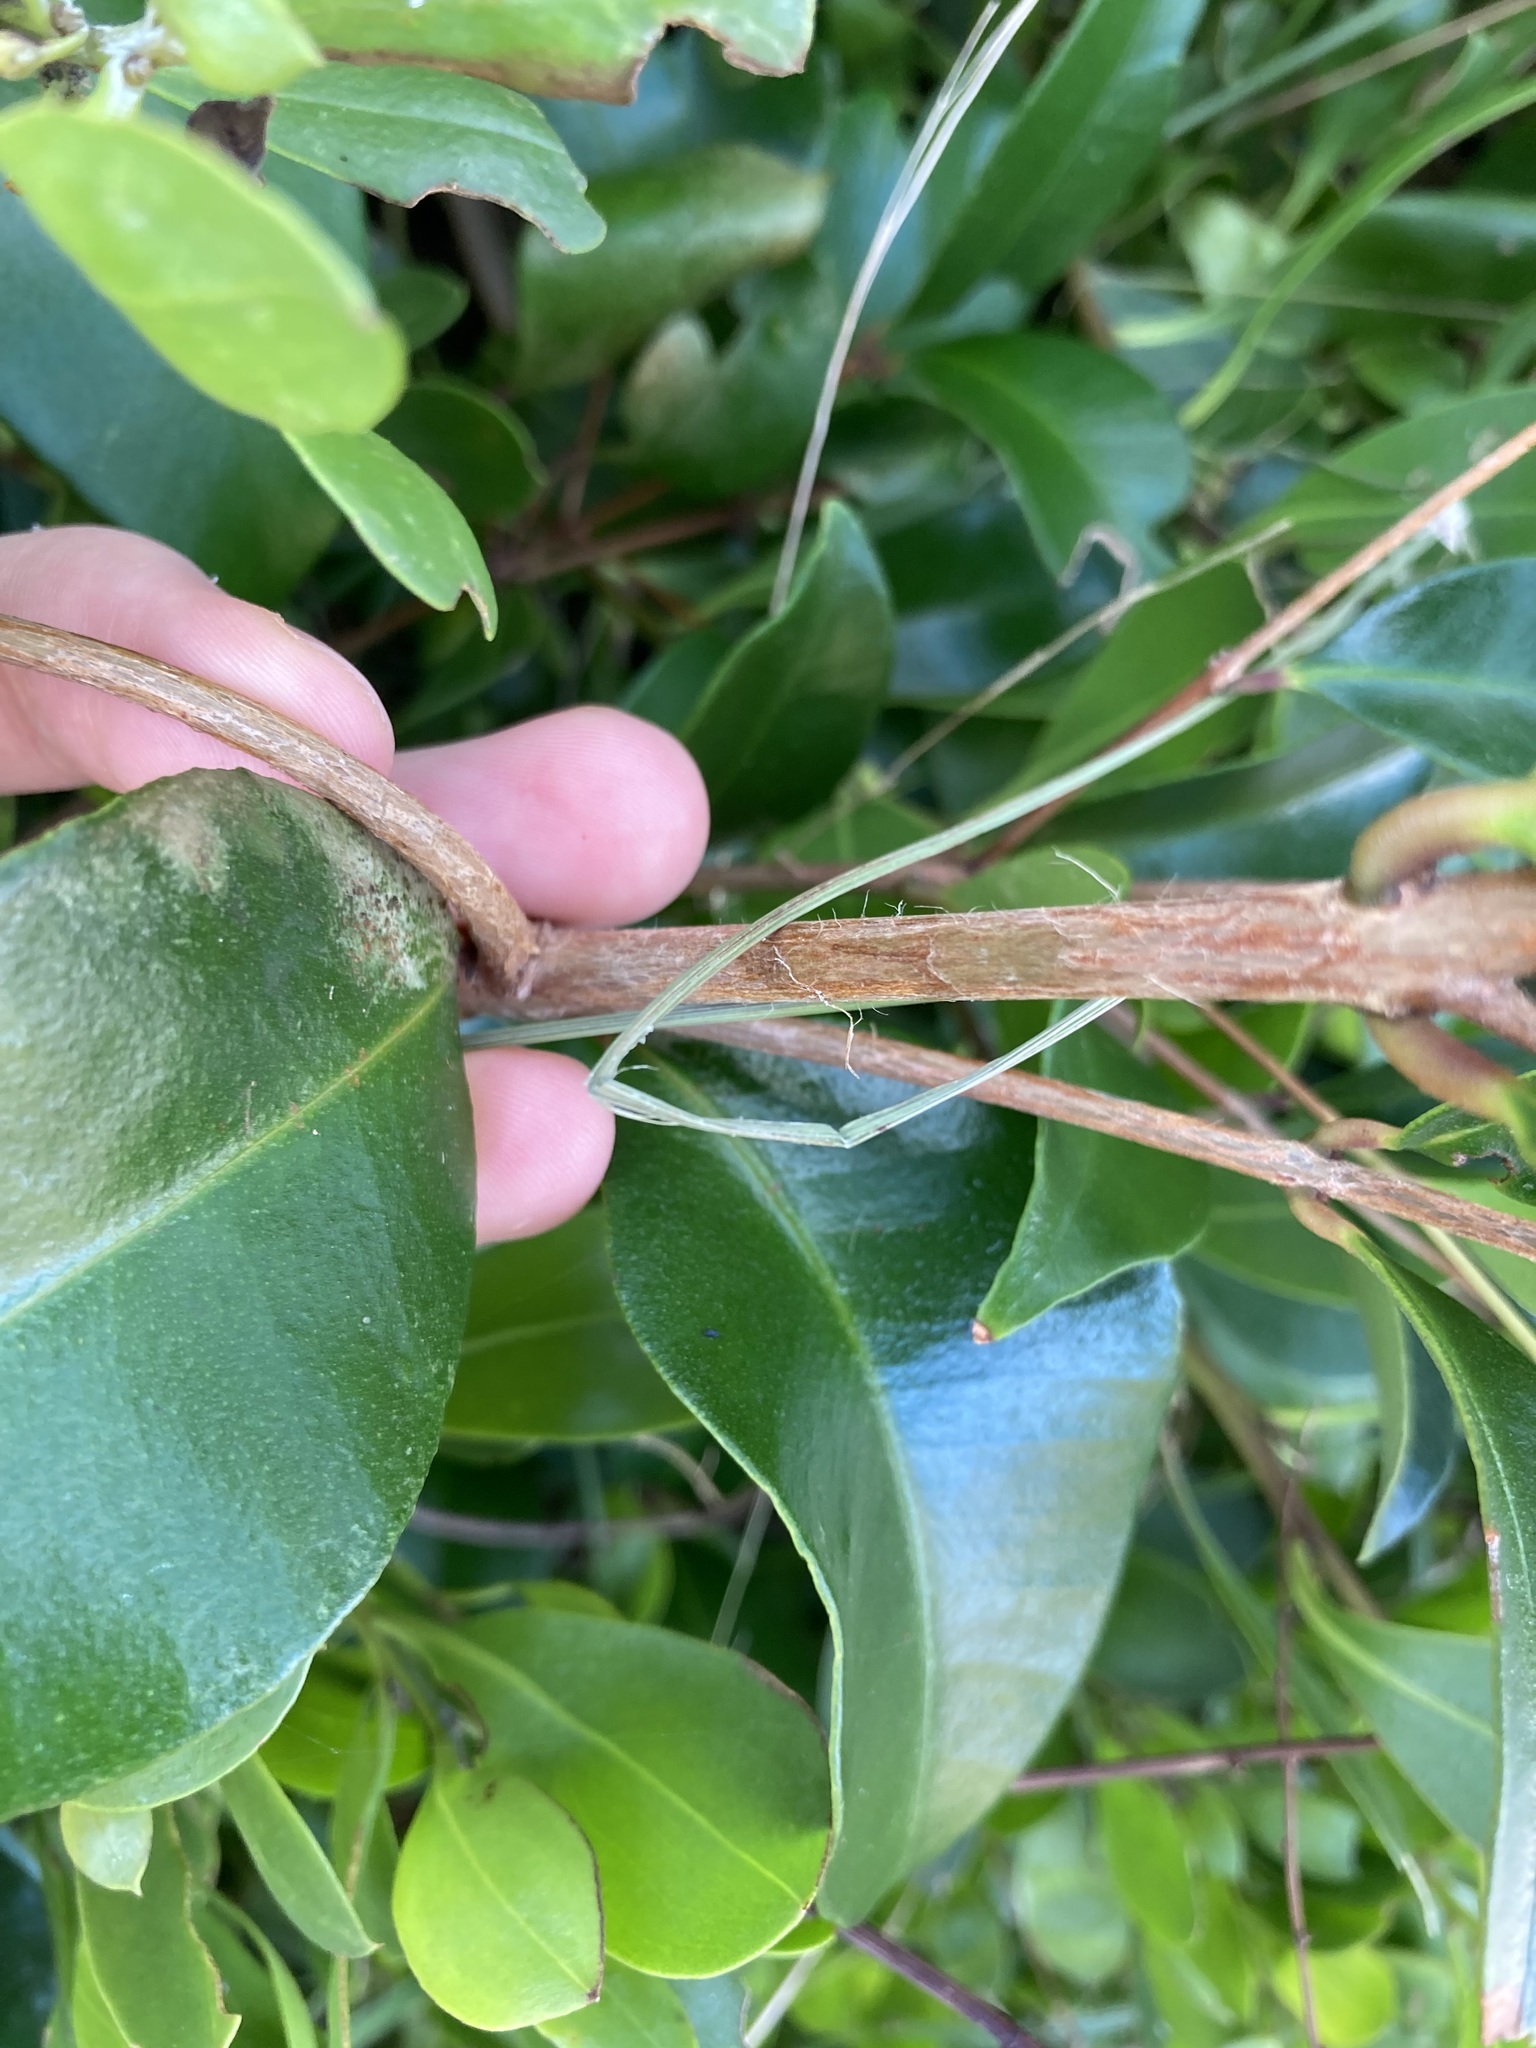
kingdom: Plantae
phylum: Tracheophyta
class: Magnoliopsida
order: Myrtales
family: Myrtaceae
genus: Syzygium
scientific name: Syzygium smithii
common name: Lilly-pilly
